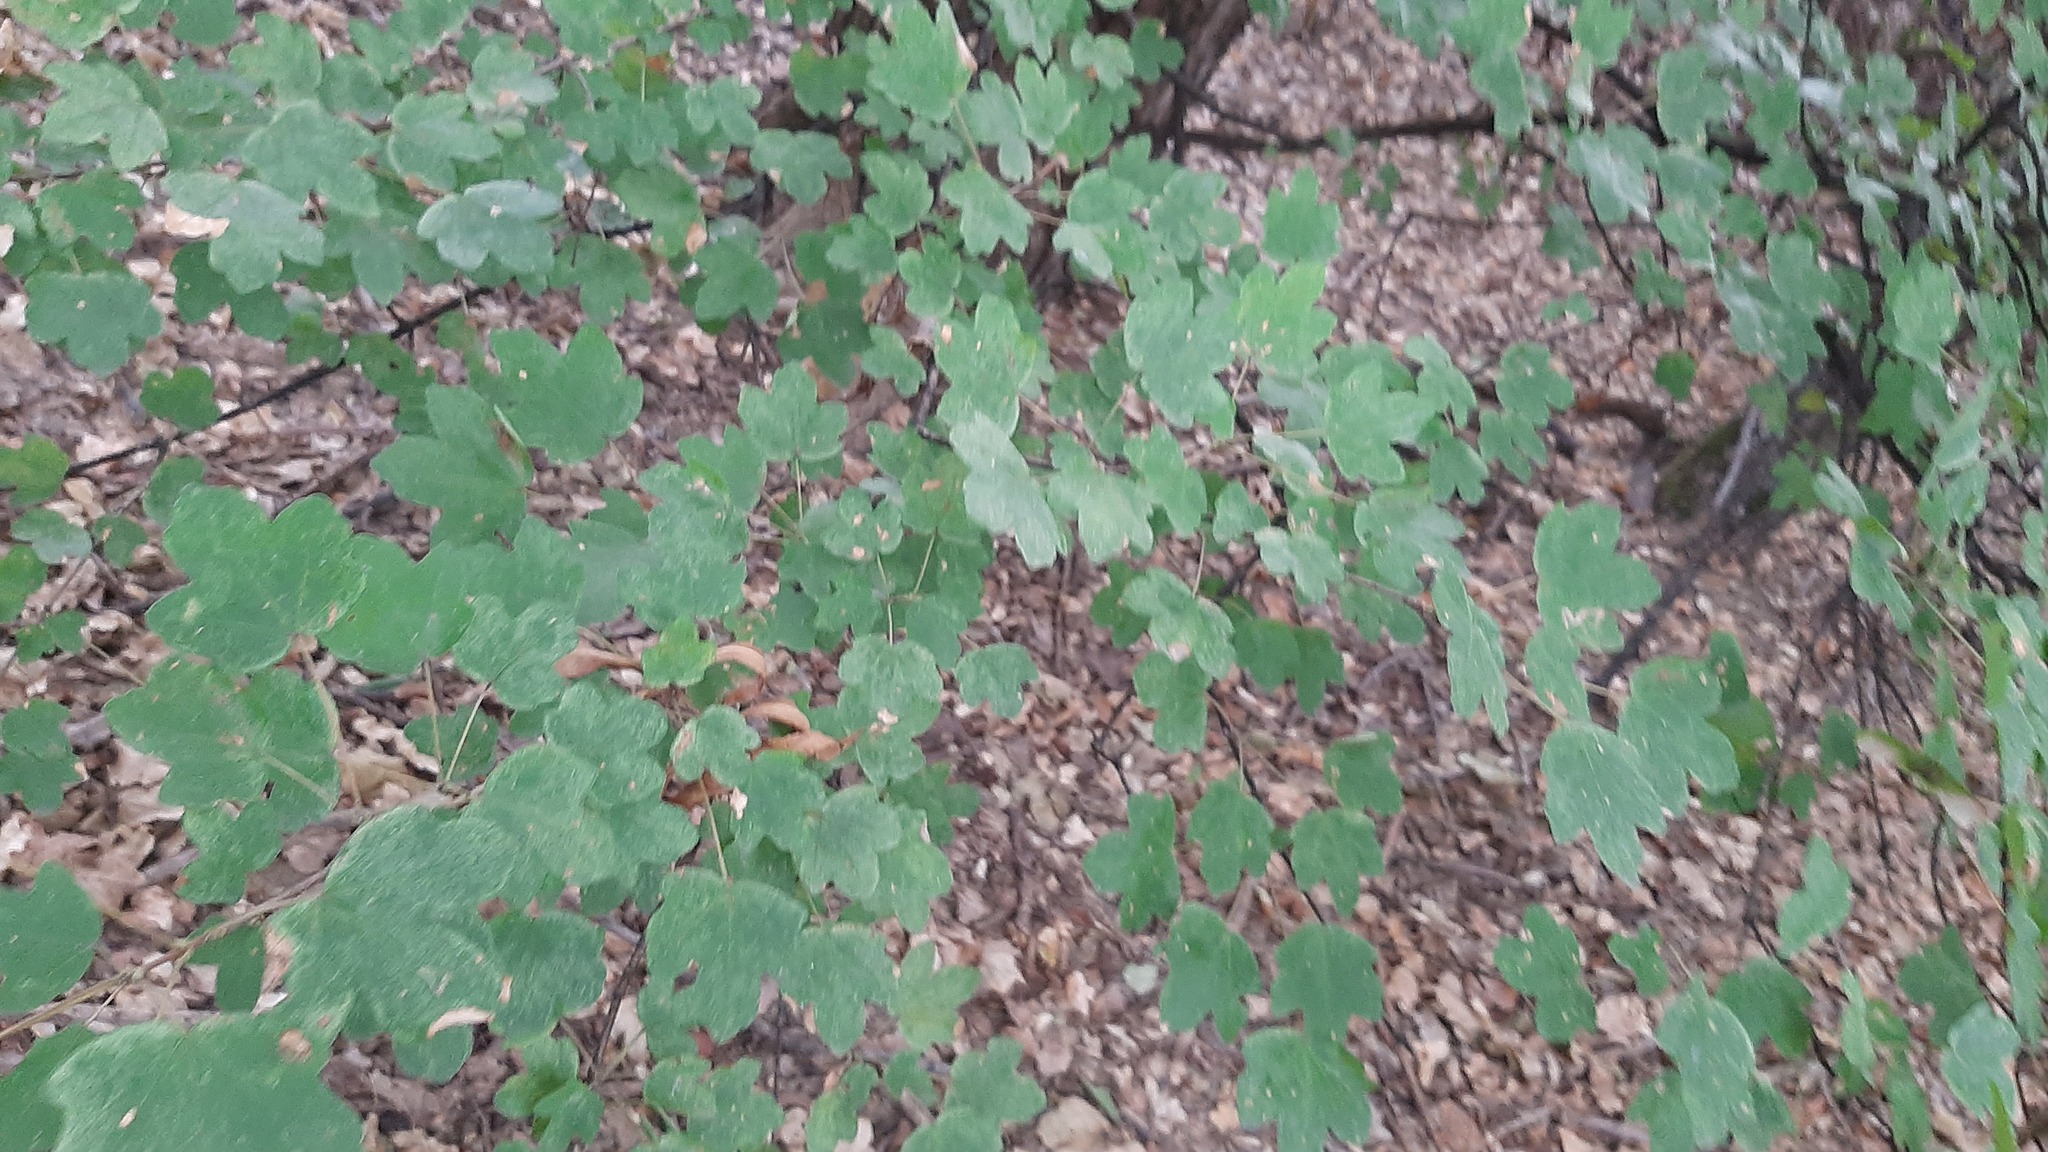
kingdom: Plantae
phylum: Tracheophyta
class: Magnoliopsida
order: Sapindales
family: Sapindaceae
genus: Acer
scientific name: Acer campestre
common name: Field maple
